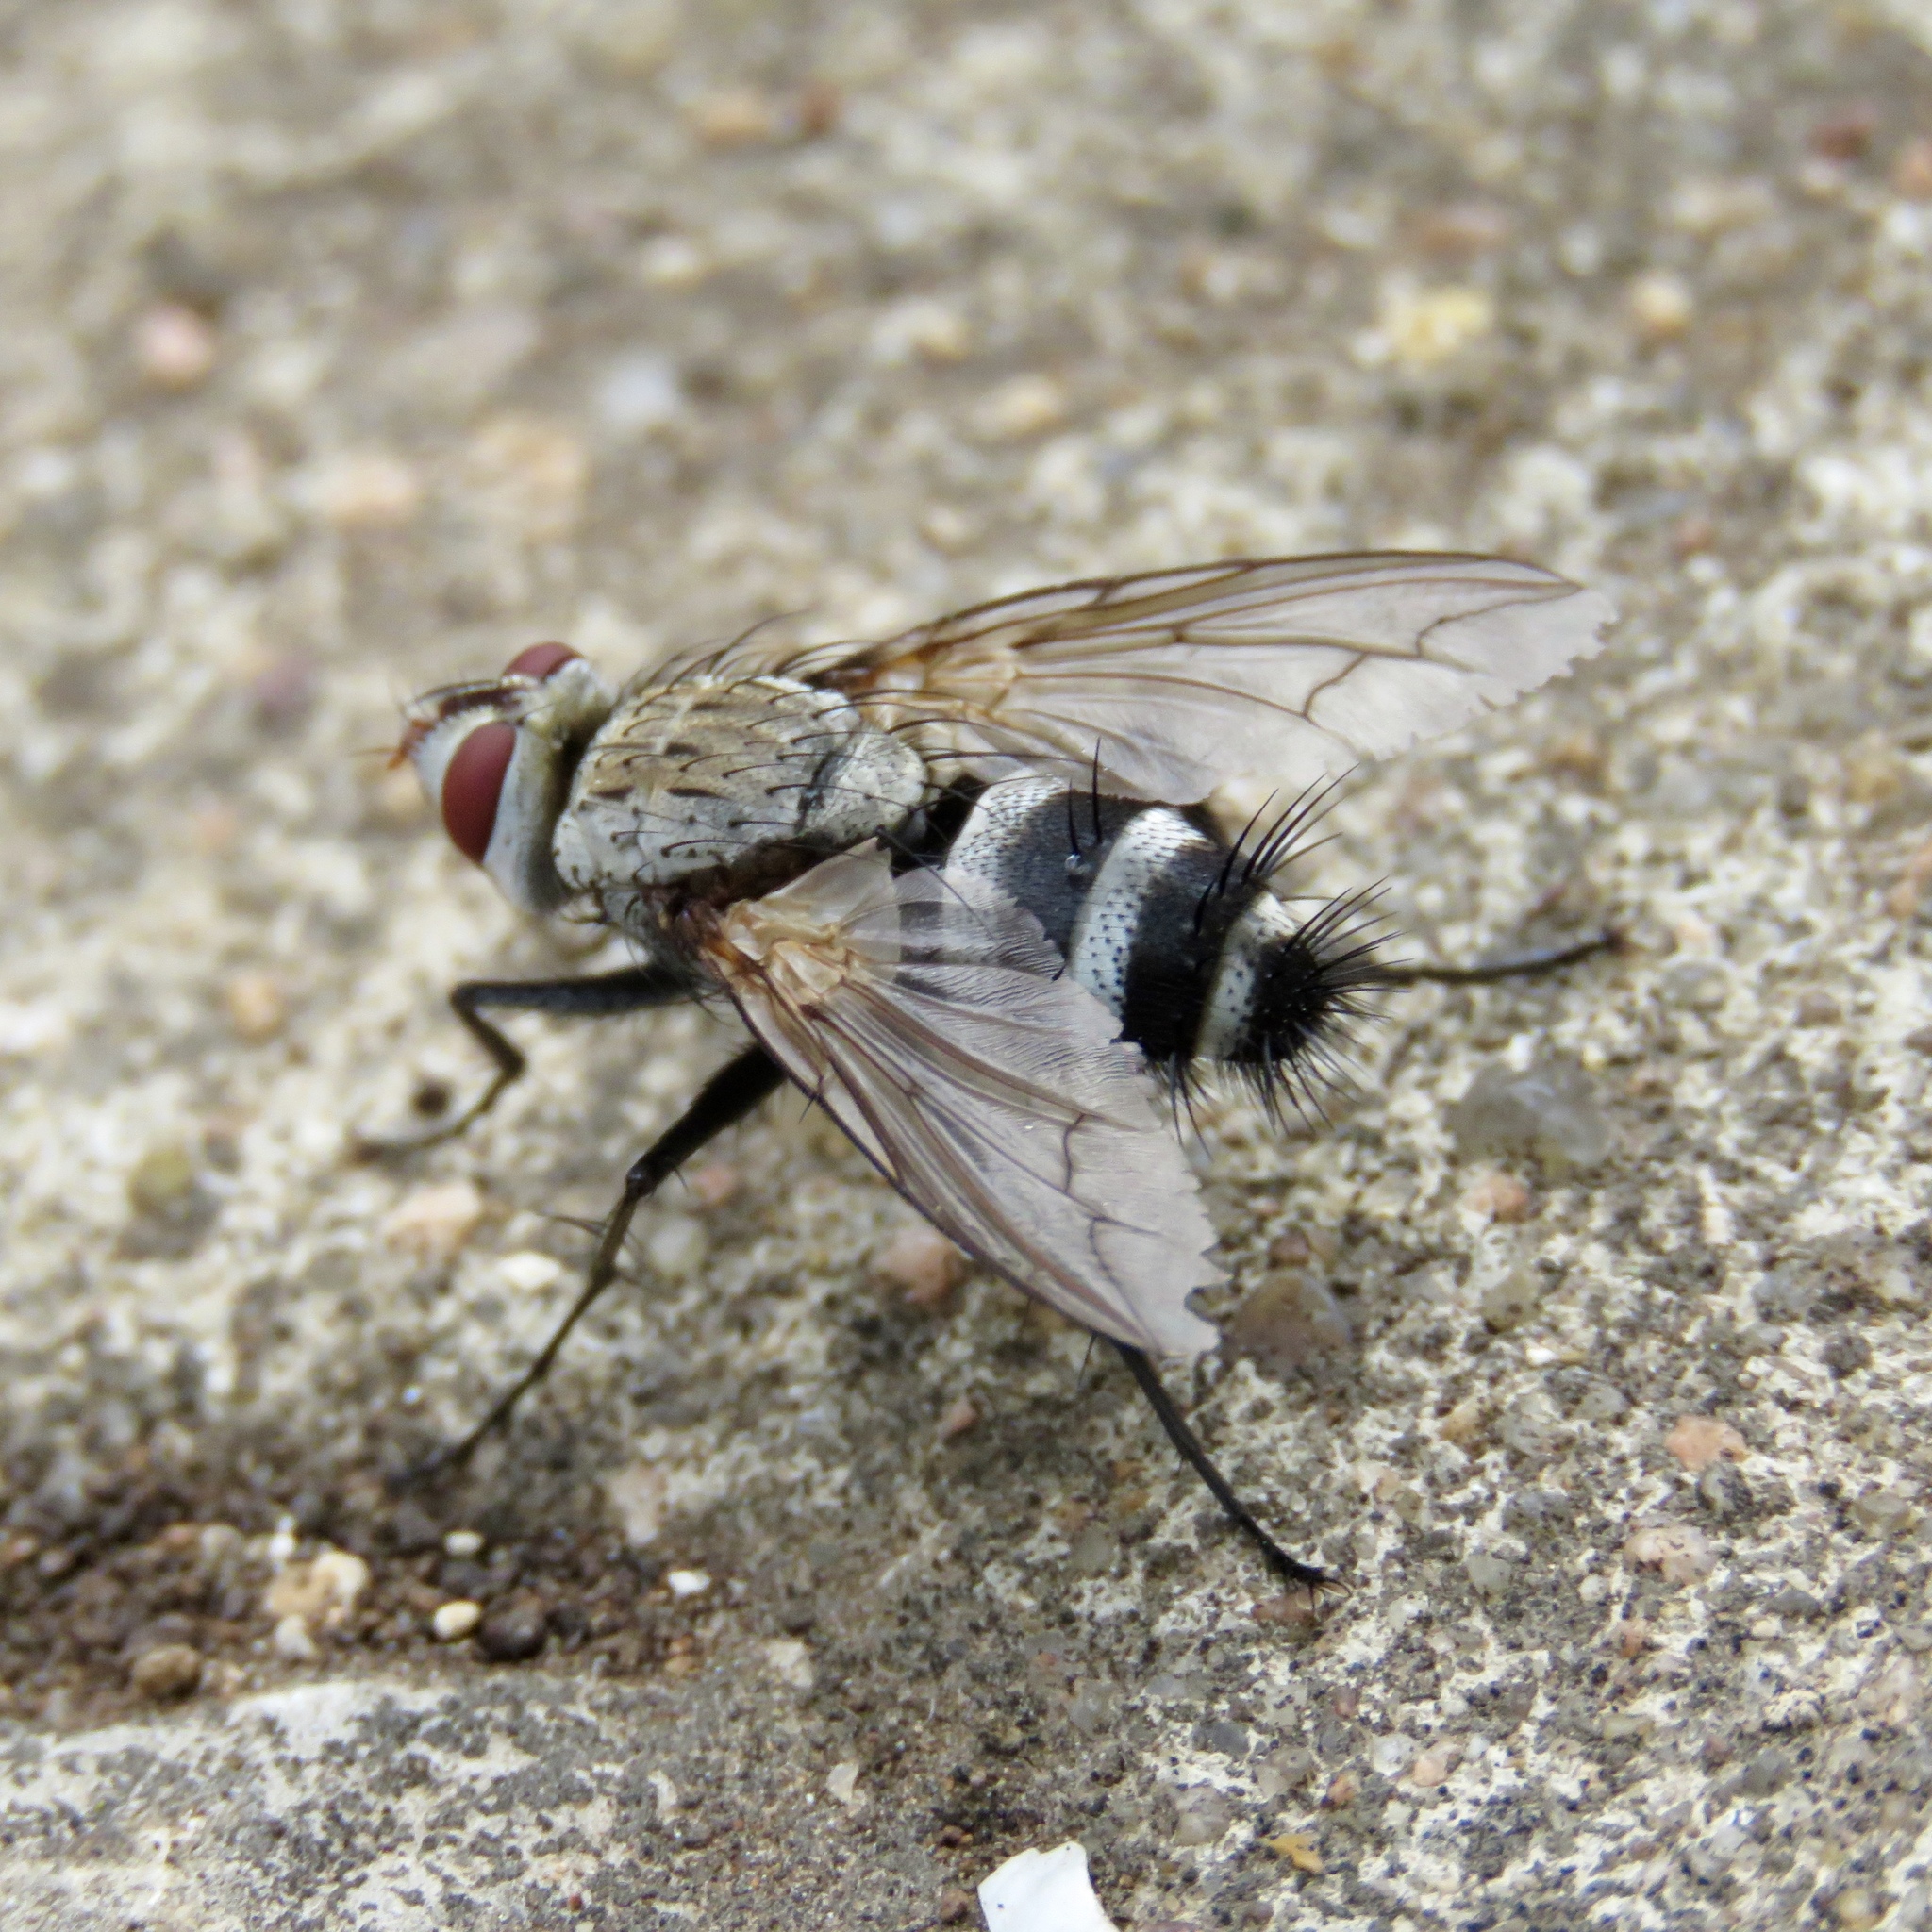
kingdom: Animalia
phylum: Arthropoda
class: Insecta
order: Diptera
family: Tachinidae
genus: Microphthalma
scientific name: Microphthalma disjuncta
